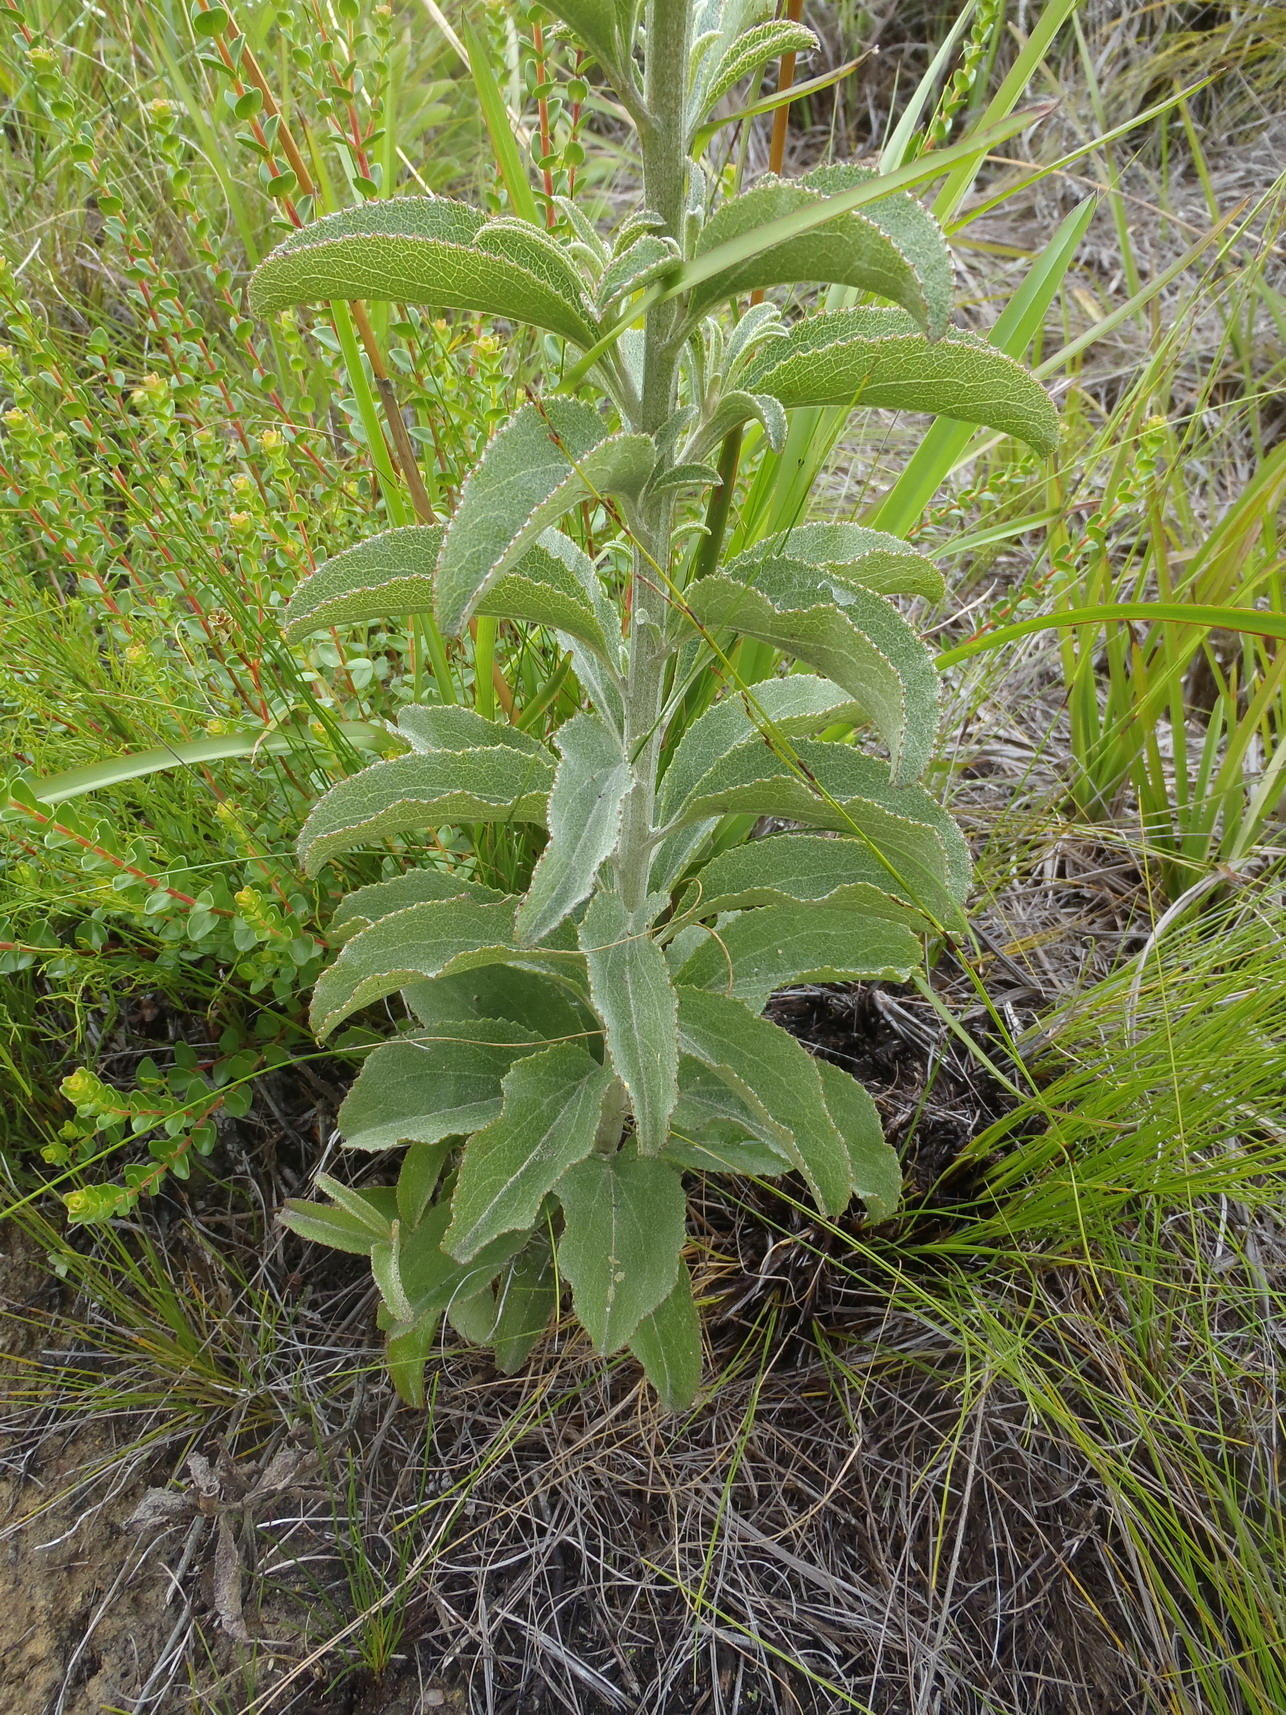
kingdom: Plantae
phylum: Tracheophyta
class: Magnoliopsida
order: Asterales
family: Asteraceae
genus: Senecio
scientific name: Senecio crenatus
